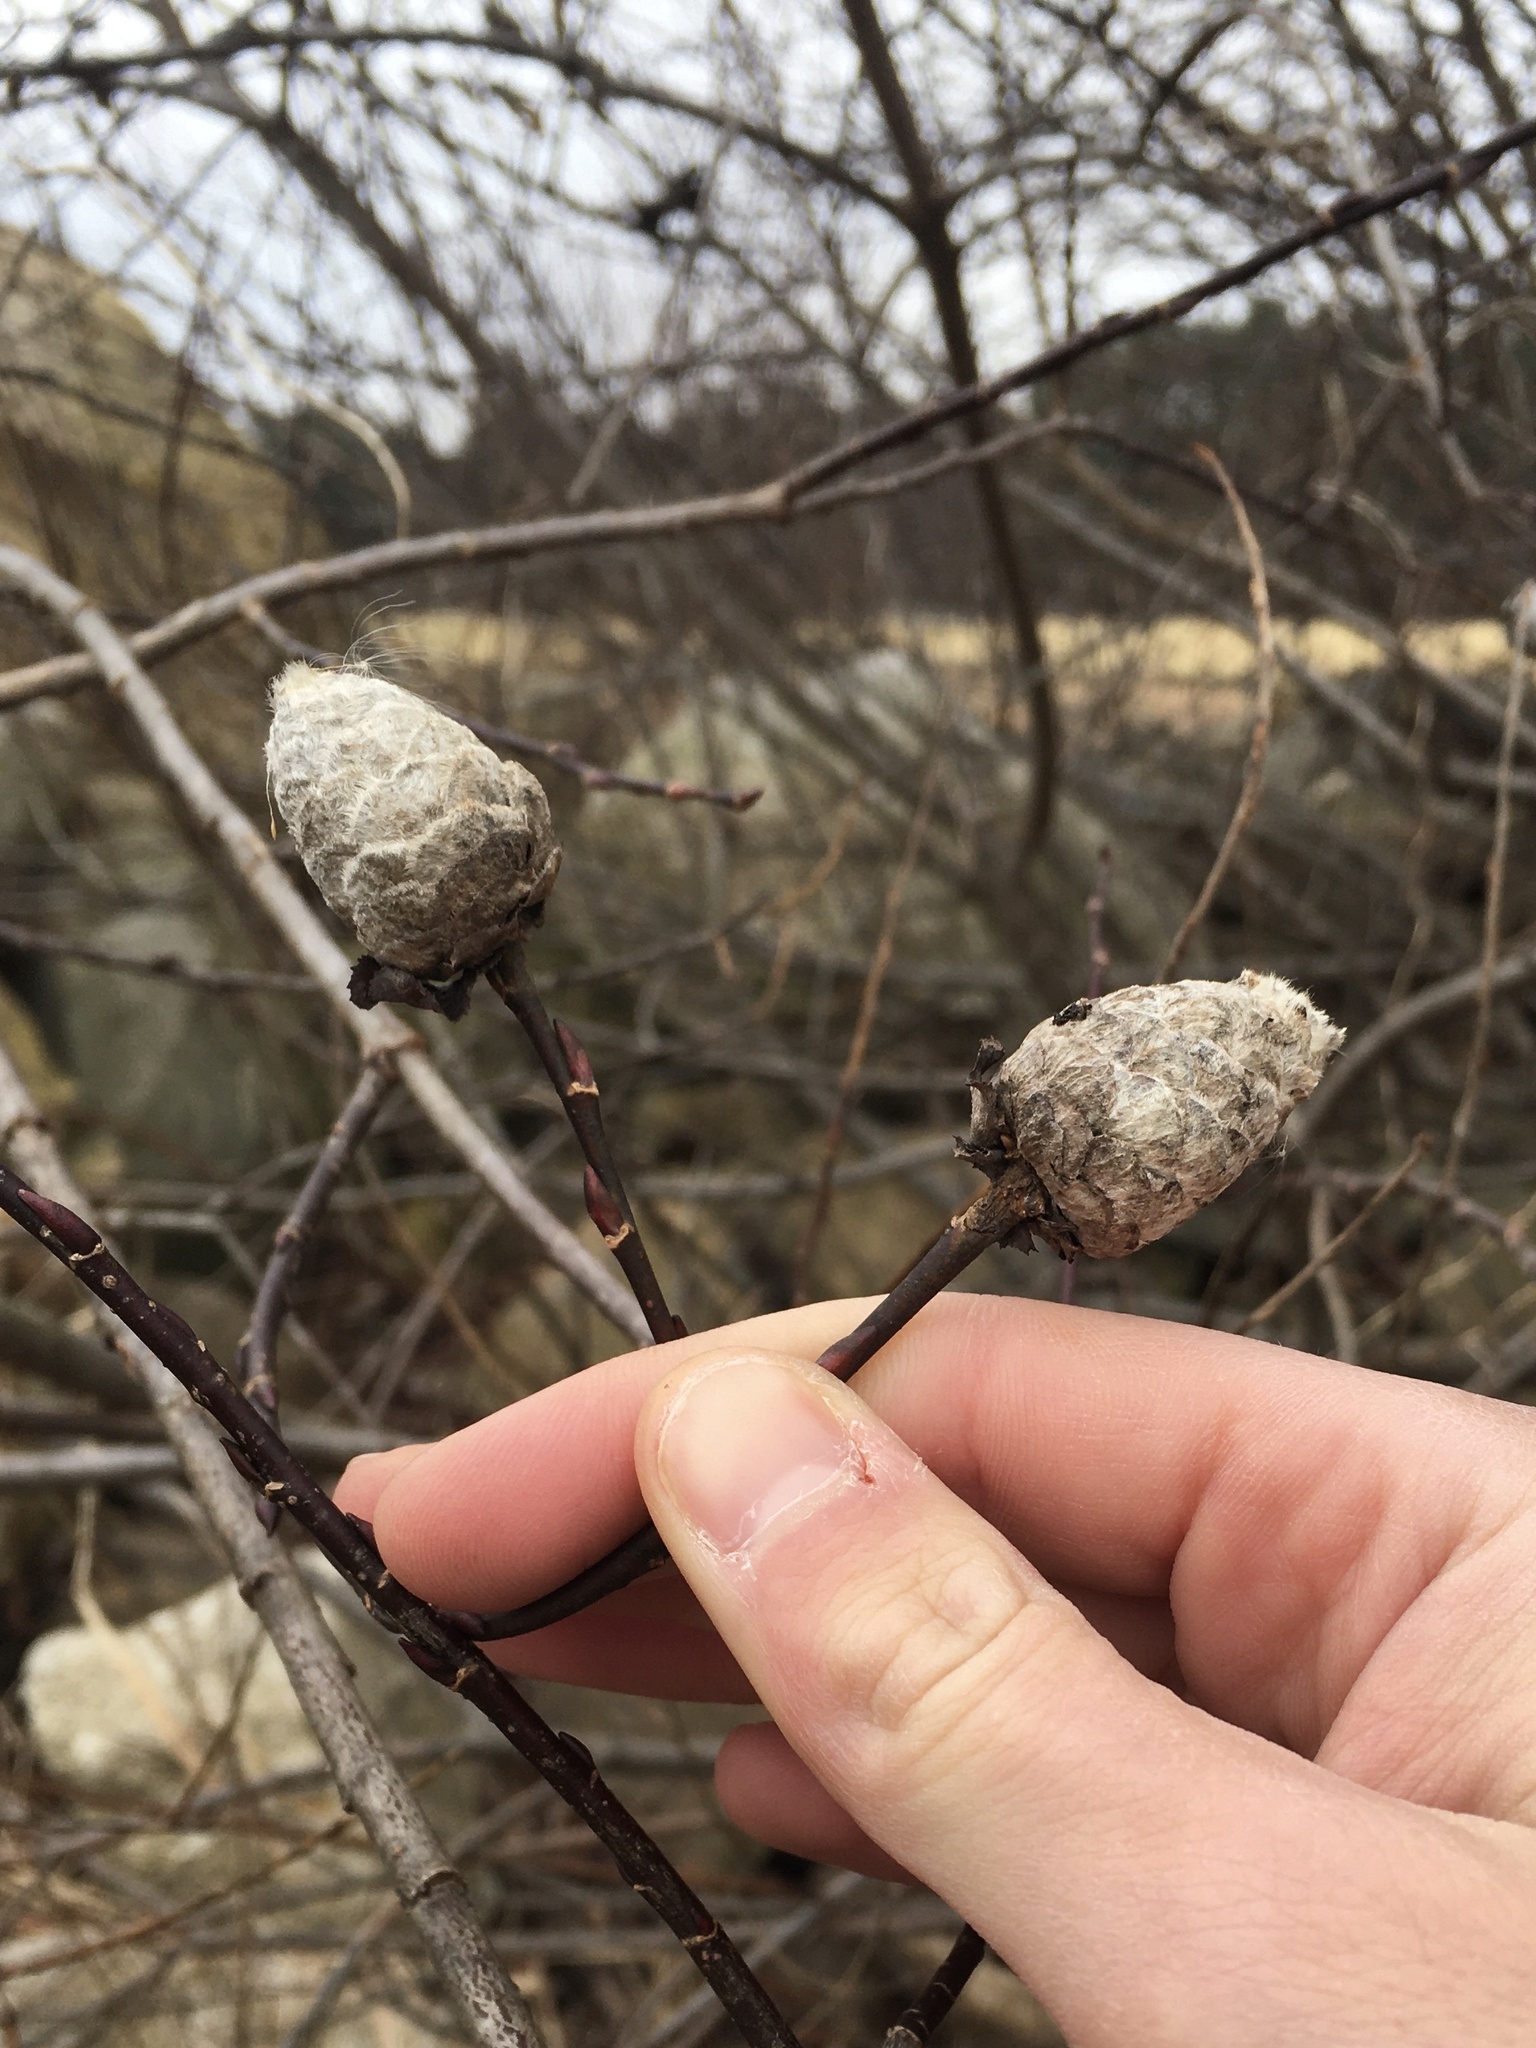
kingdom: Animalia
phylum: Arthropoda
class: Insecta
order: Diptera
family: Cecidomyiidae
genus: Rabdophaga
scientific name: Rabdophaga strobiloides
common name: Willow pinecone gall midge
